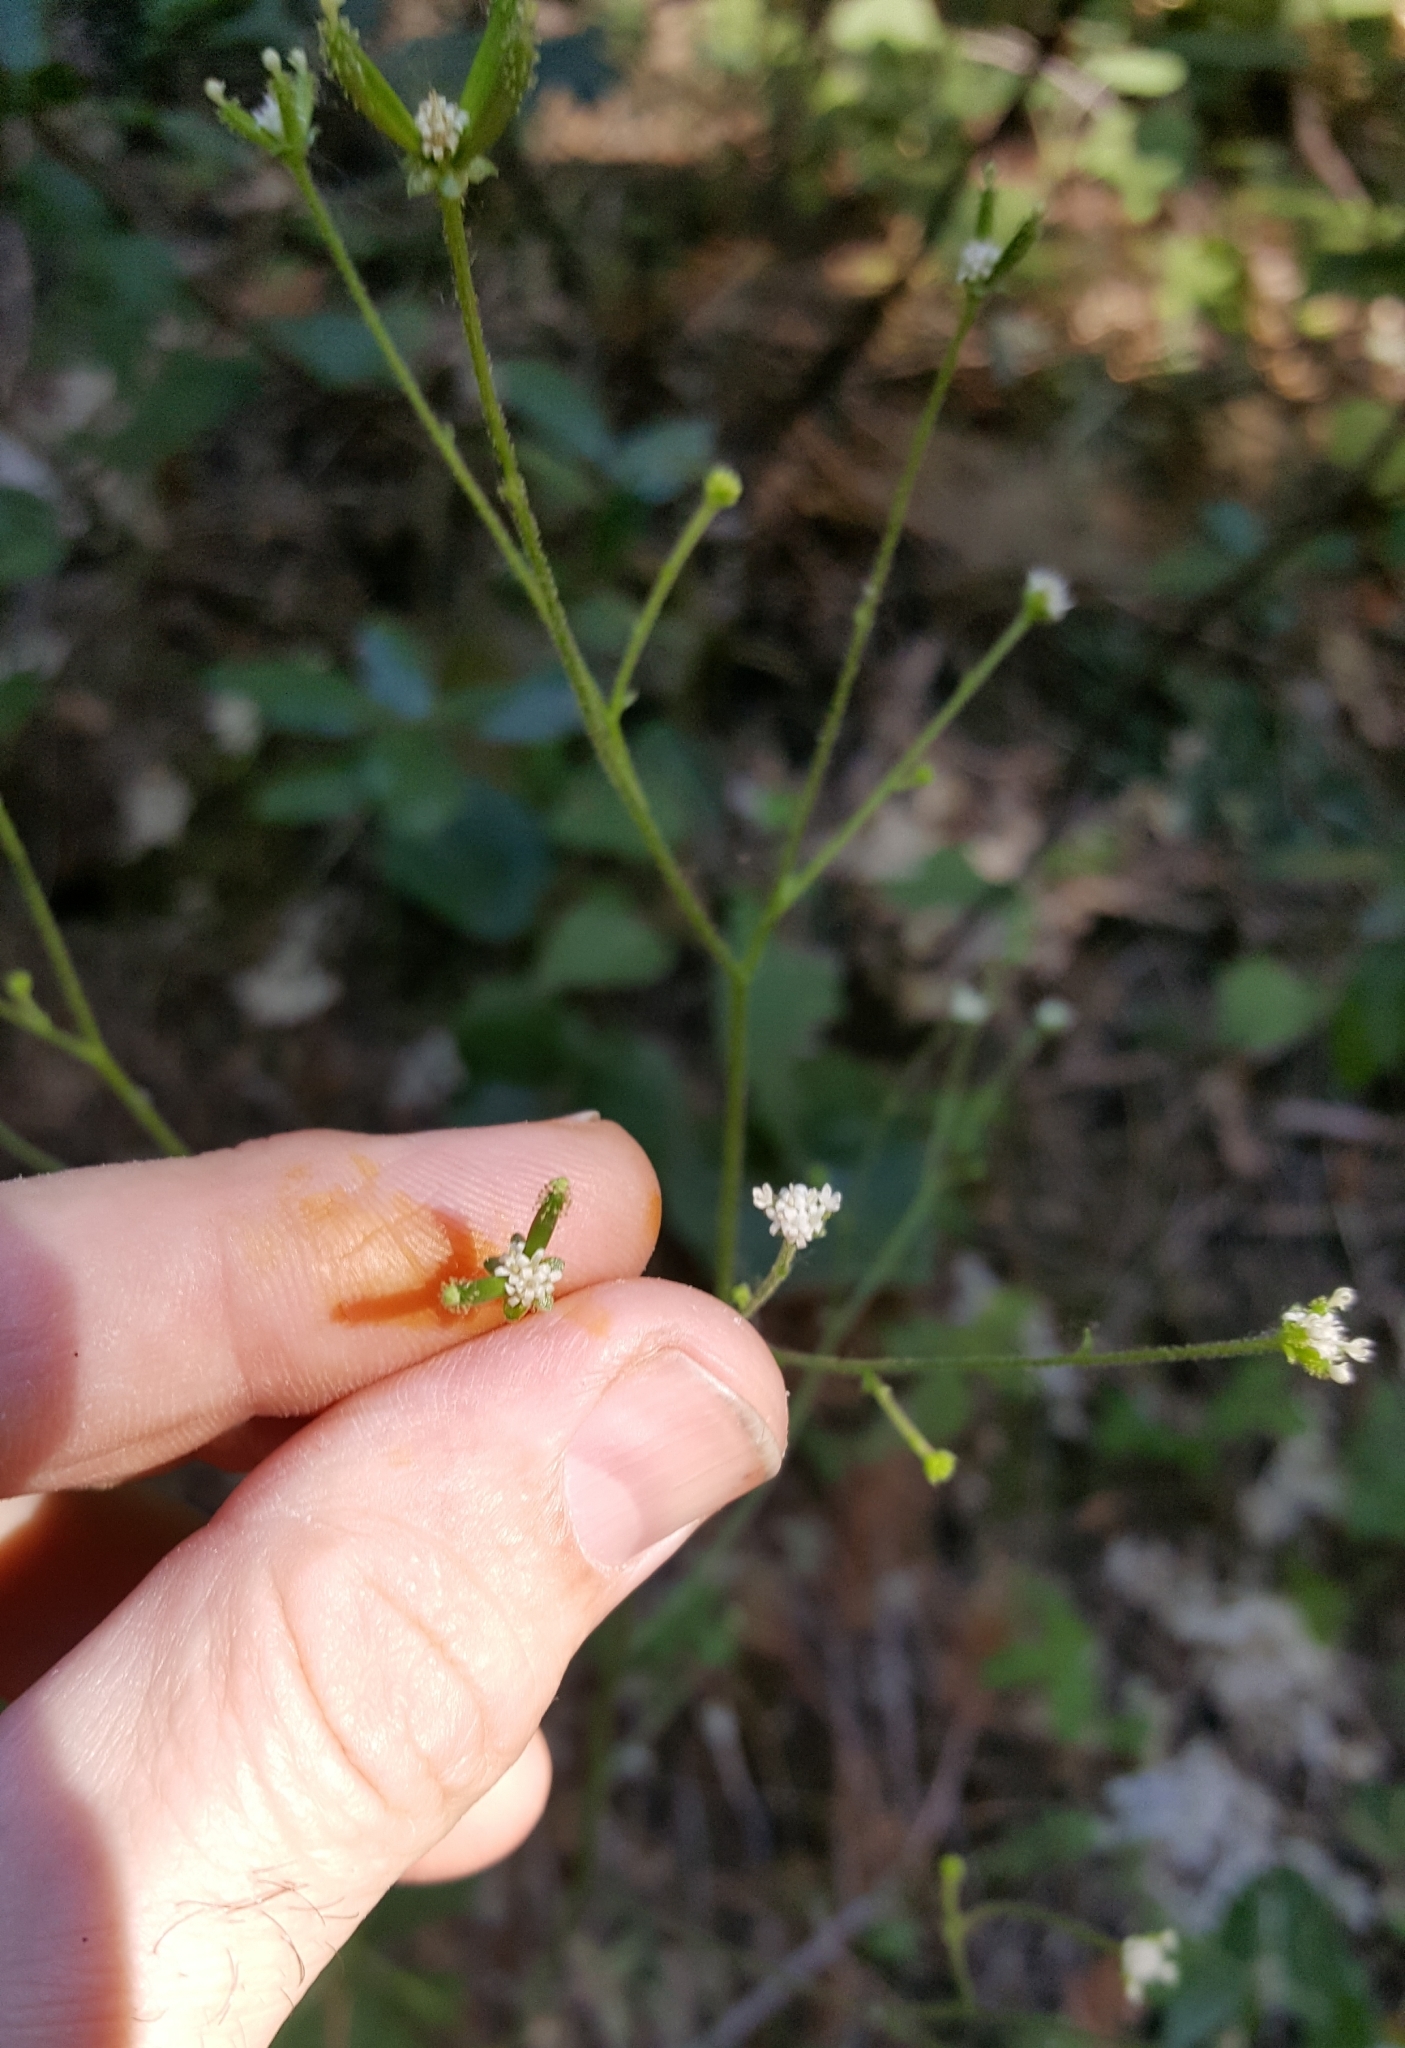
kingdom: Plantae
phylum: Tracheophyta
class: Magnoliopsida
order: Asterales
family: Asteraceae
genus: Adenocaulon
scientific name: Adenocaulon bicolor
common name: Trailplant
